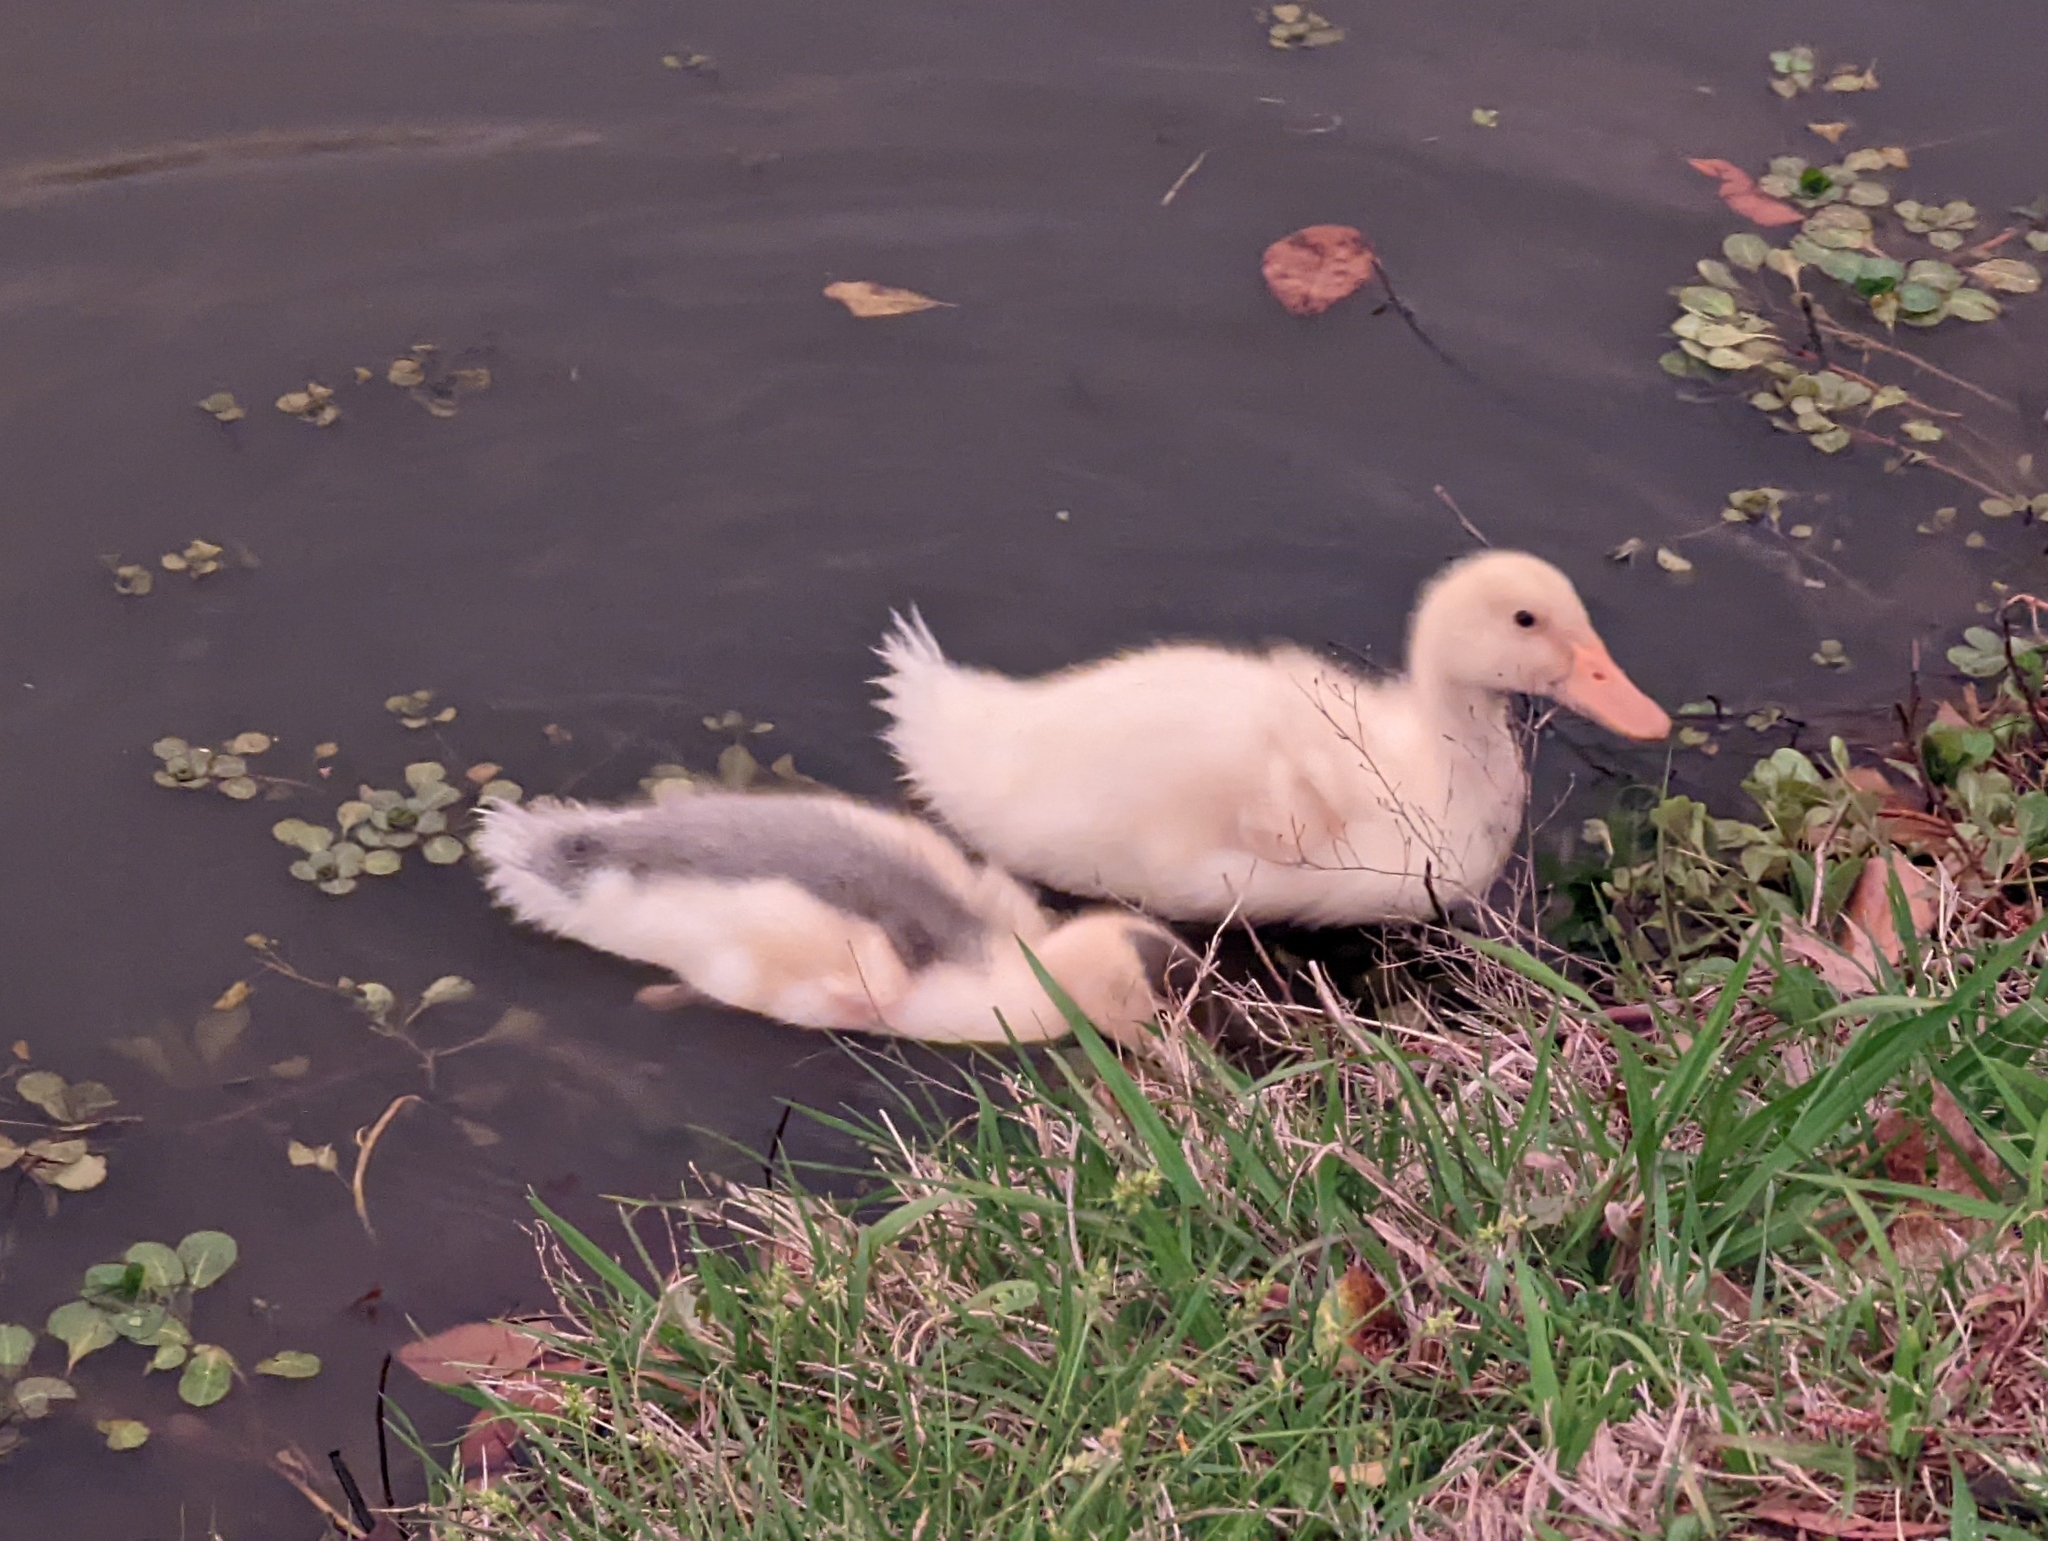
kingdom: Animalia
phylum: Chordata
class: Aves
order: Anseriformes
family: Anatidae
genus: Anas
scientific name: Anas platyrhynchos
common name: Mallard
